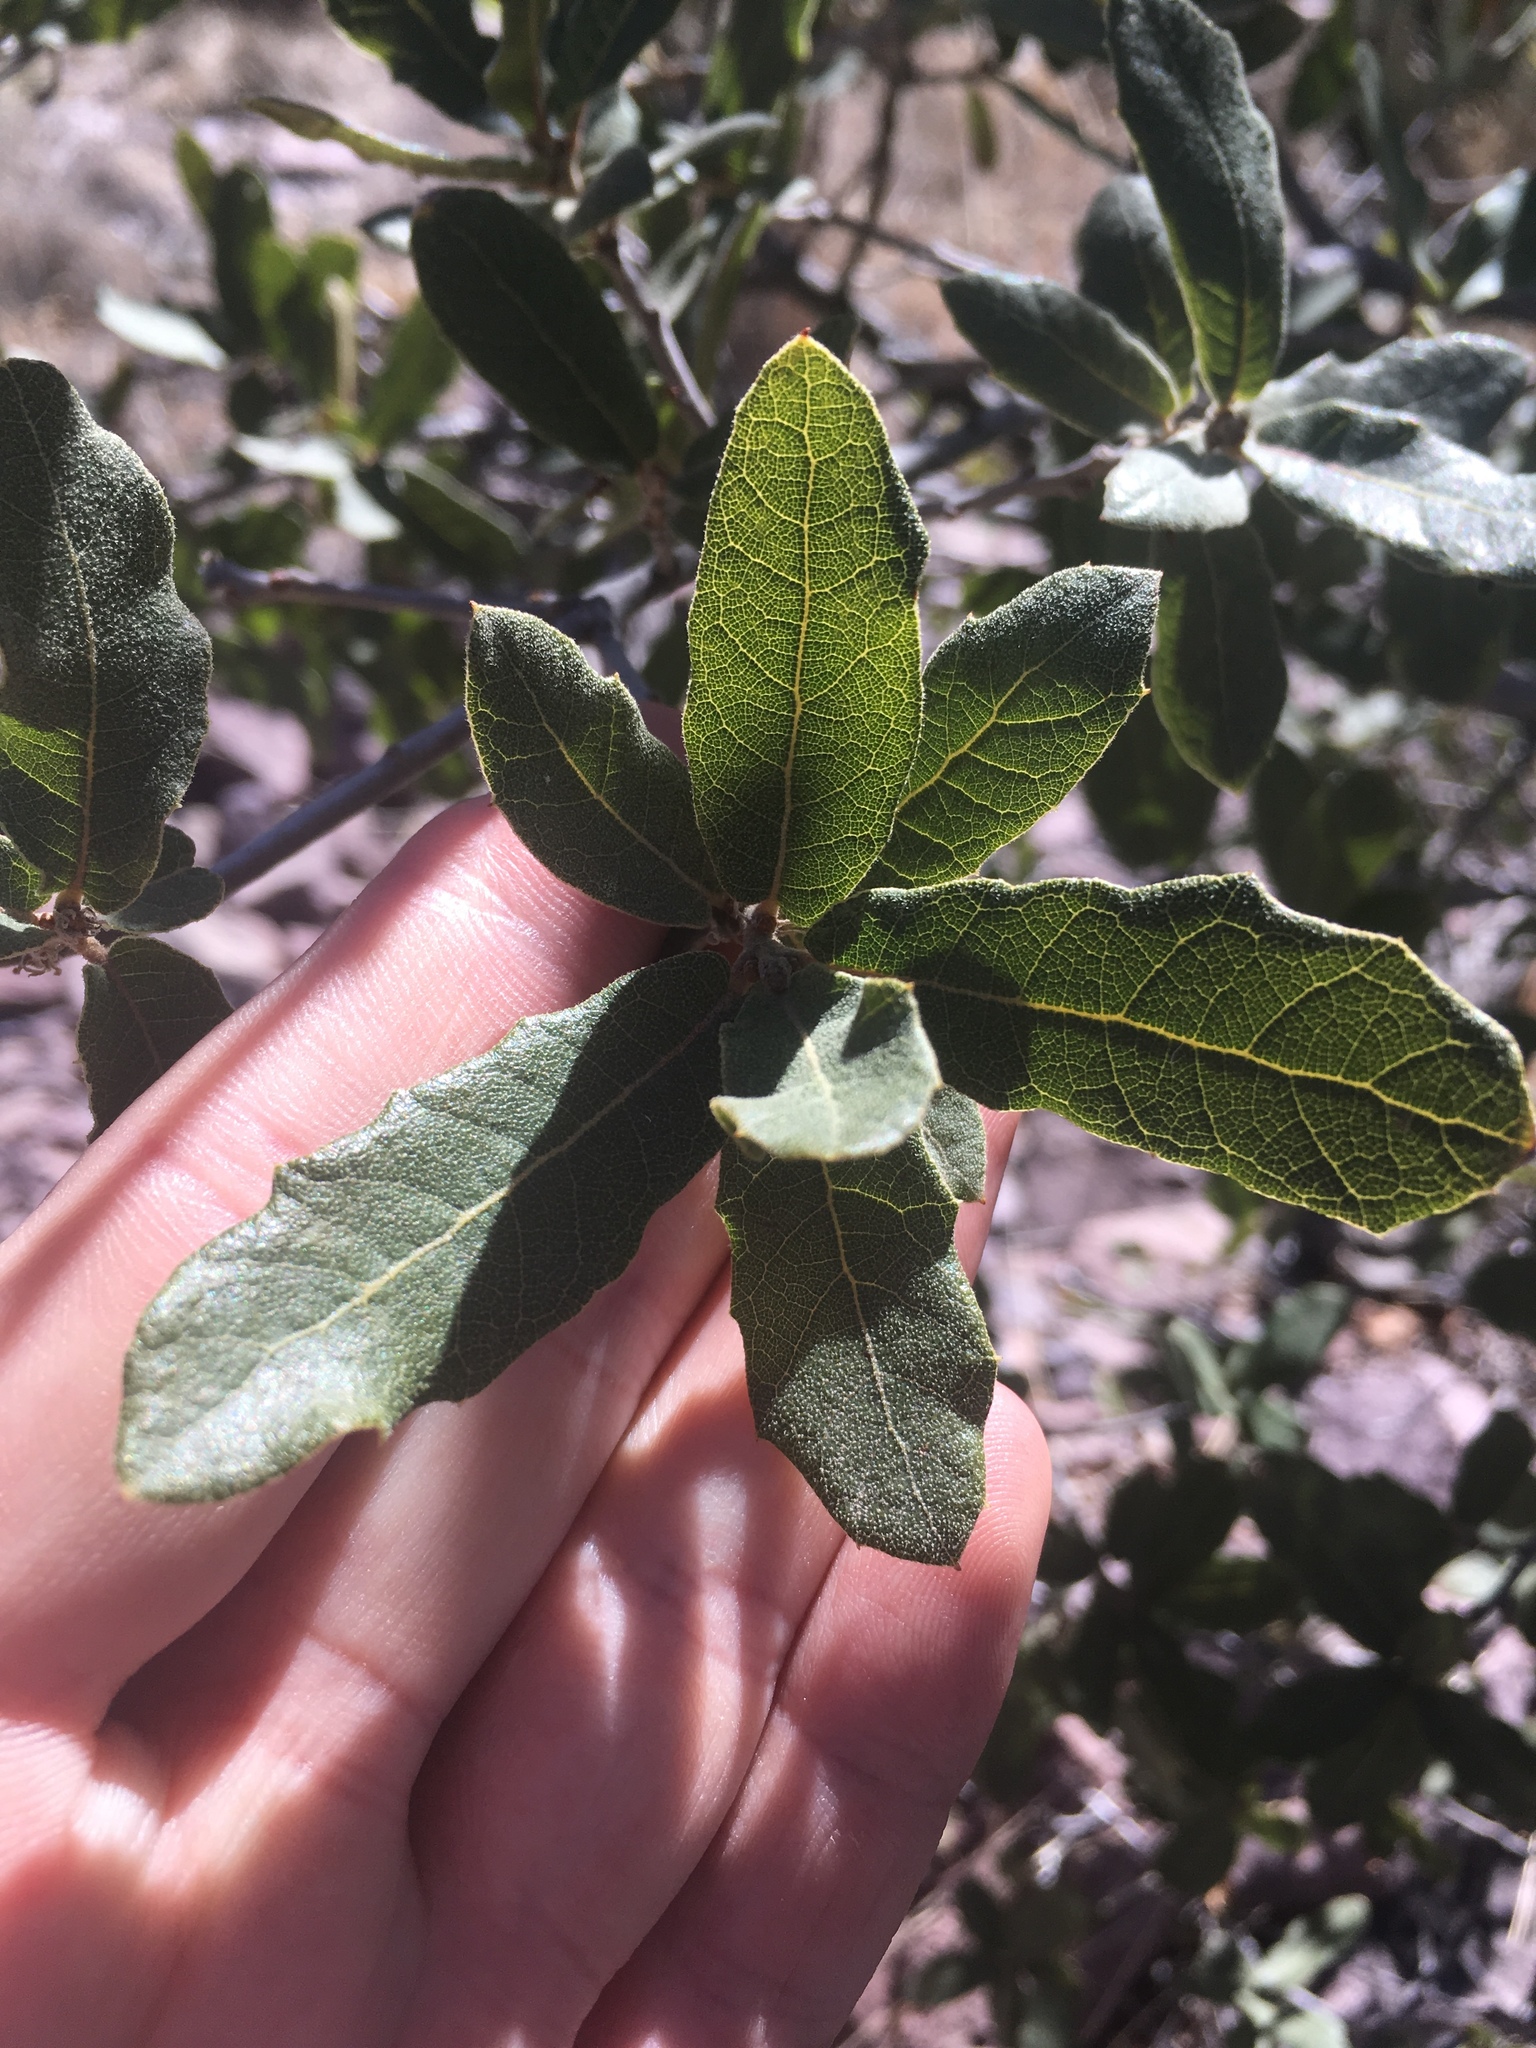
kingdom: Plantae
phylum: Tracheophyta
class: Magnoliopsida
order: Fagales
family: Fagaceae
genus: Quercus
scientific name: Quercus arizonica
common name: Arizona white oak
